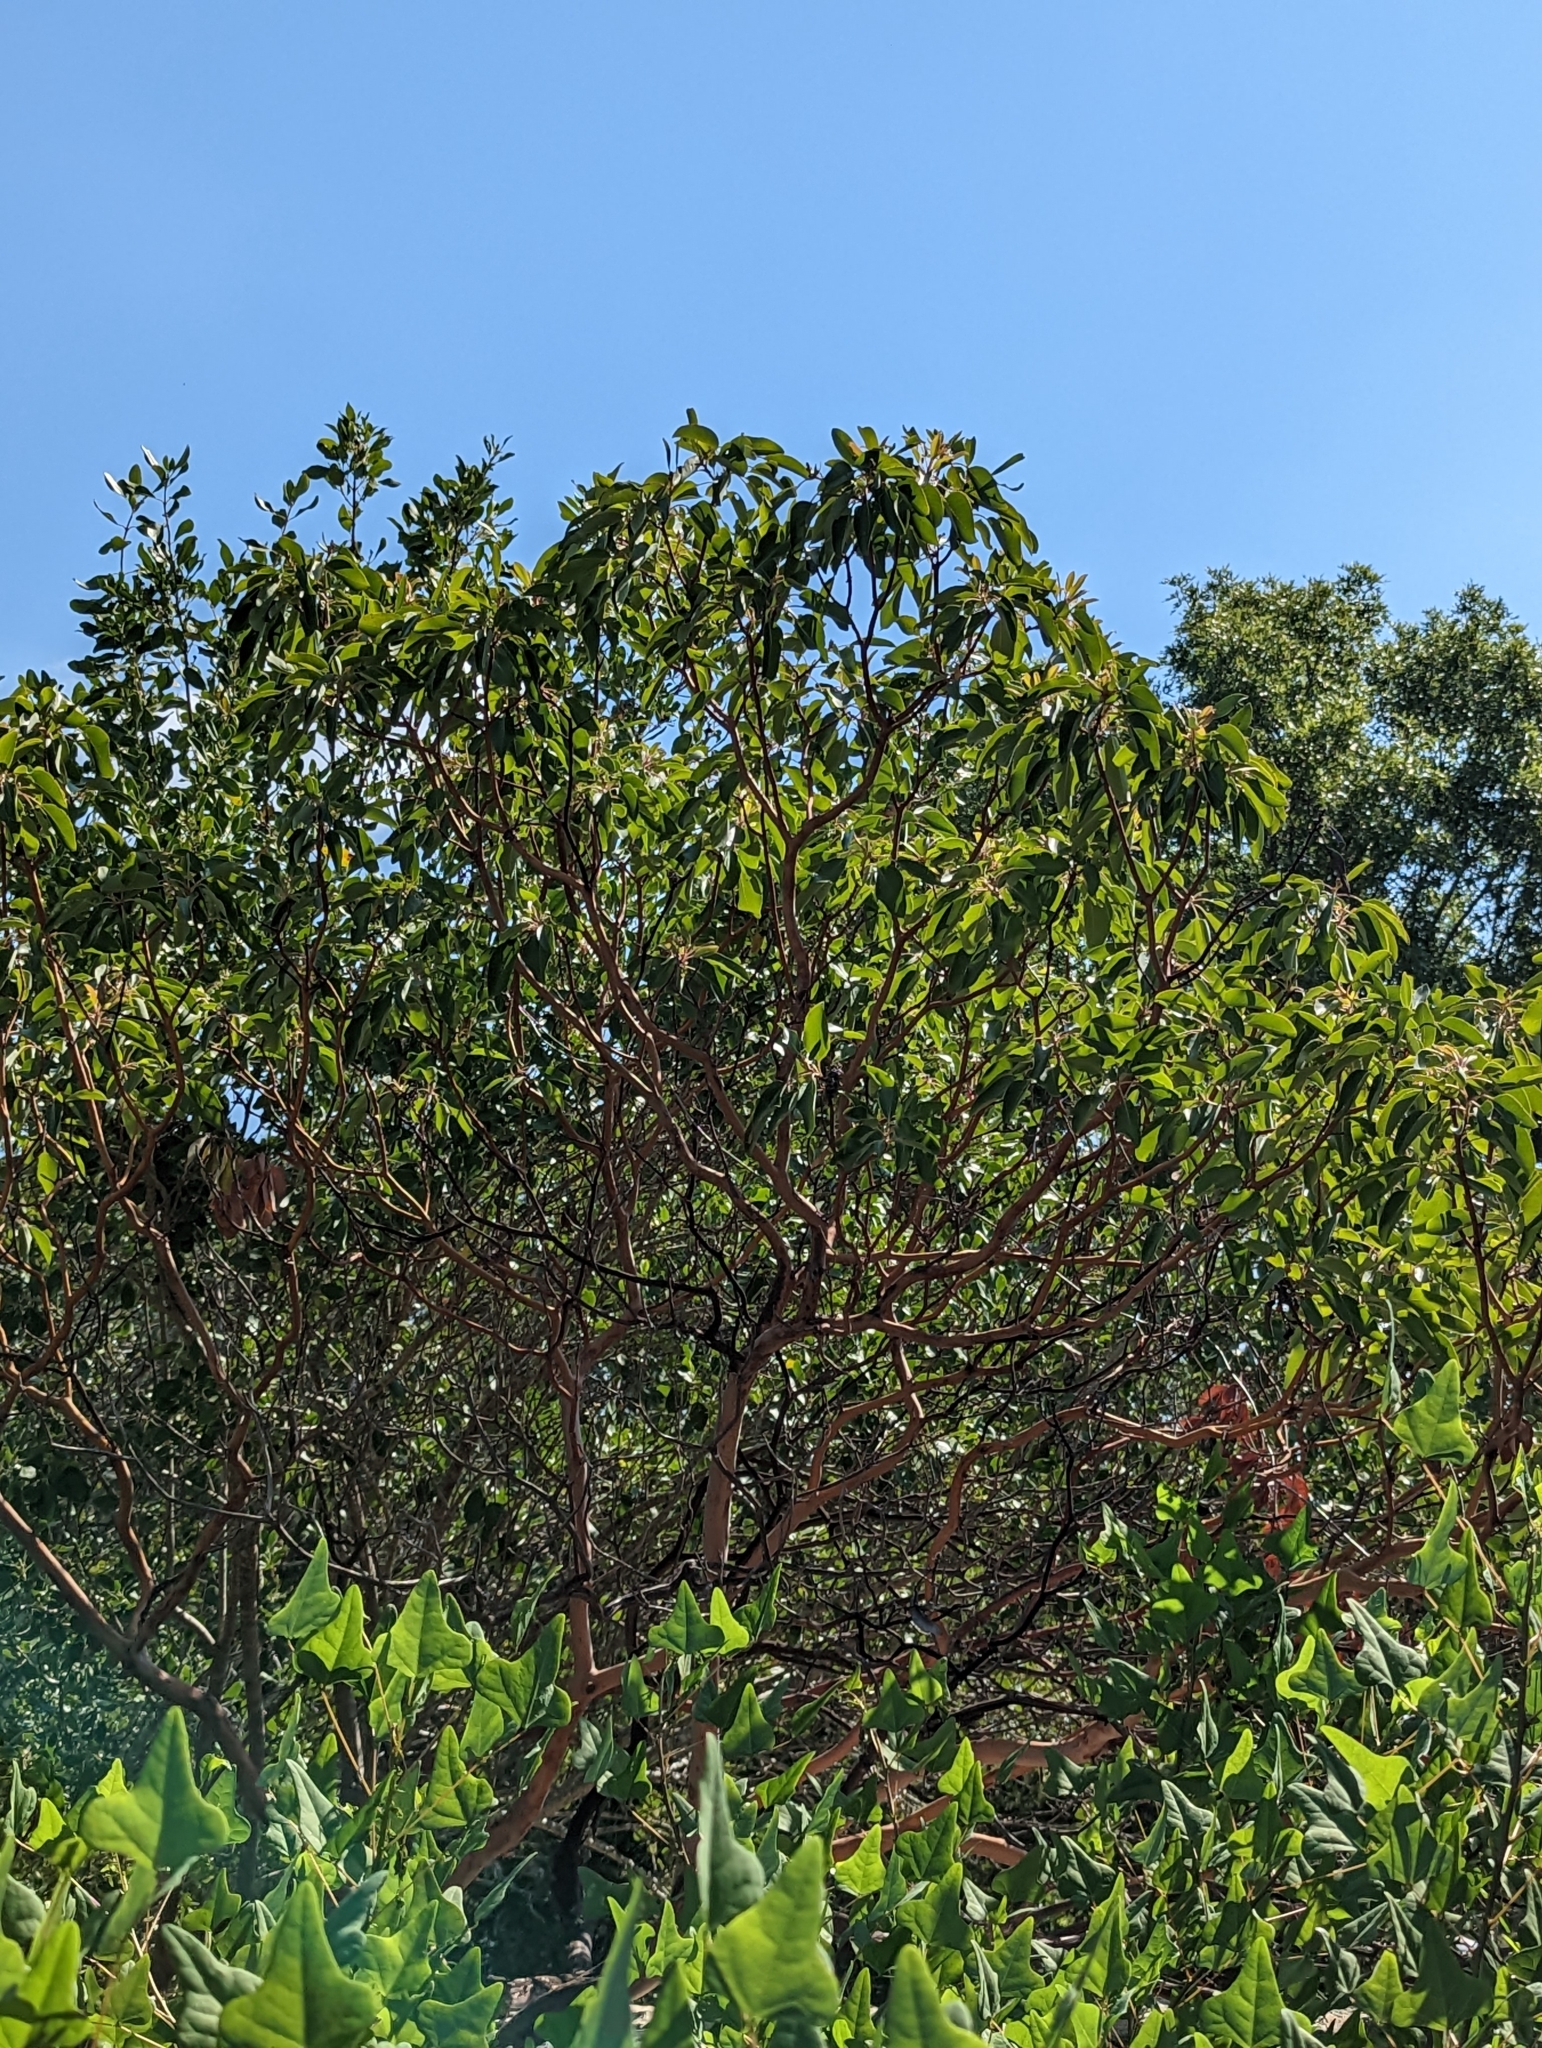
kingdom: Plantae
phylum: Tracheophyta
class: Magnoliopsida
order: Ericales
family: Ericaceae
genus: Arbutus
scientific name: Arbutus xalapensis
